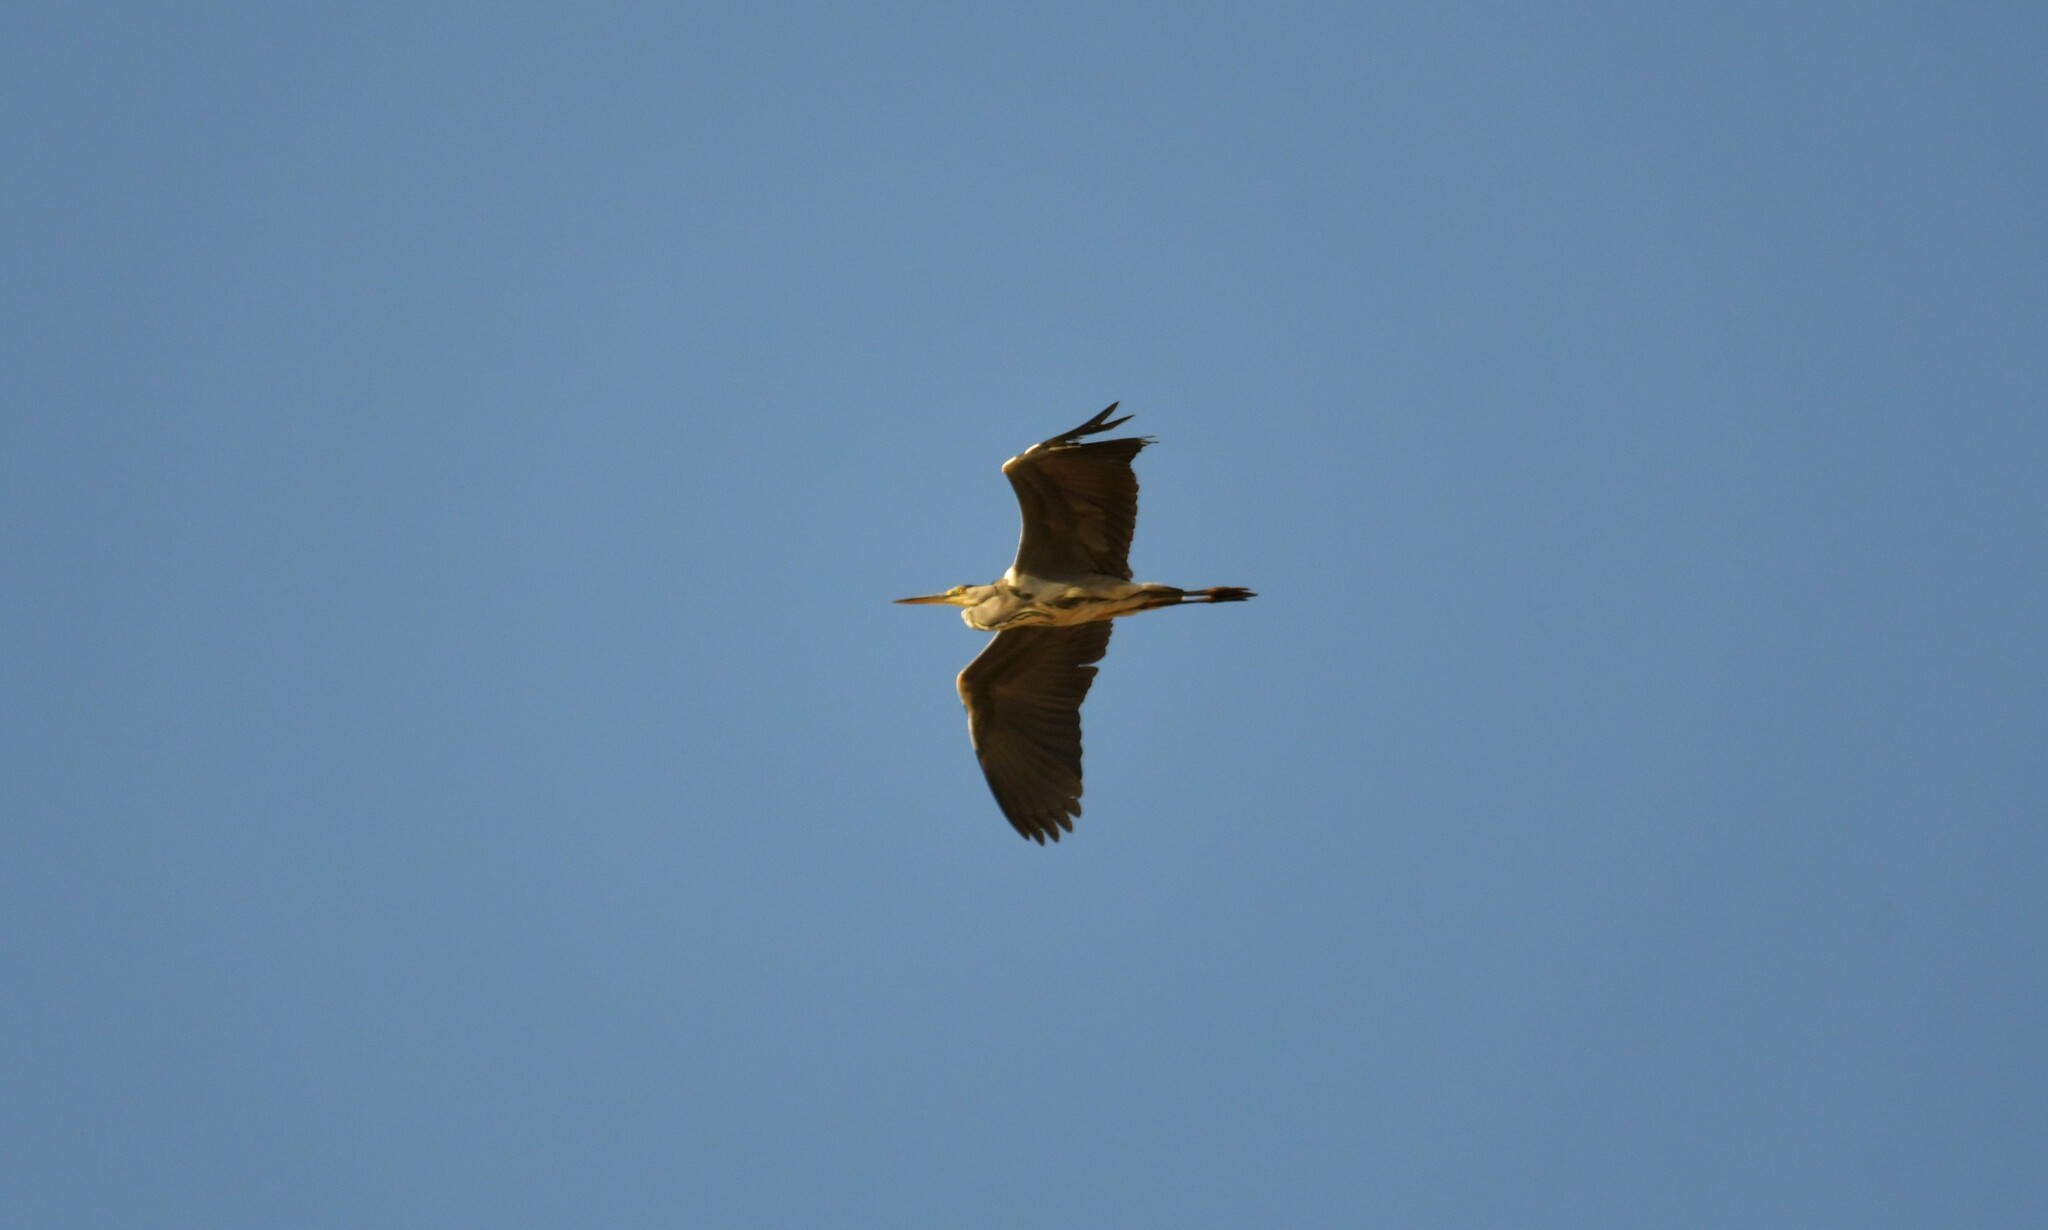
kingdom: Animalia
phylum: Chordata
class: Aves
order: Pelecaniformes
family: Ardeidae
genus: Ardea
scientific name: Ardea cinerea
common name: Grey heron
